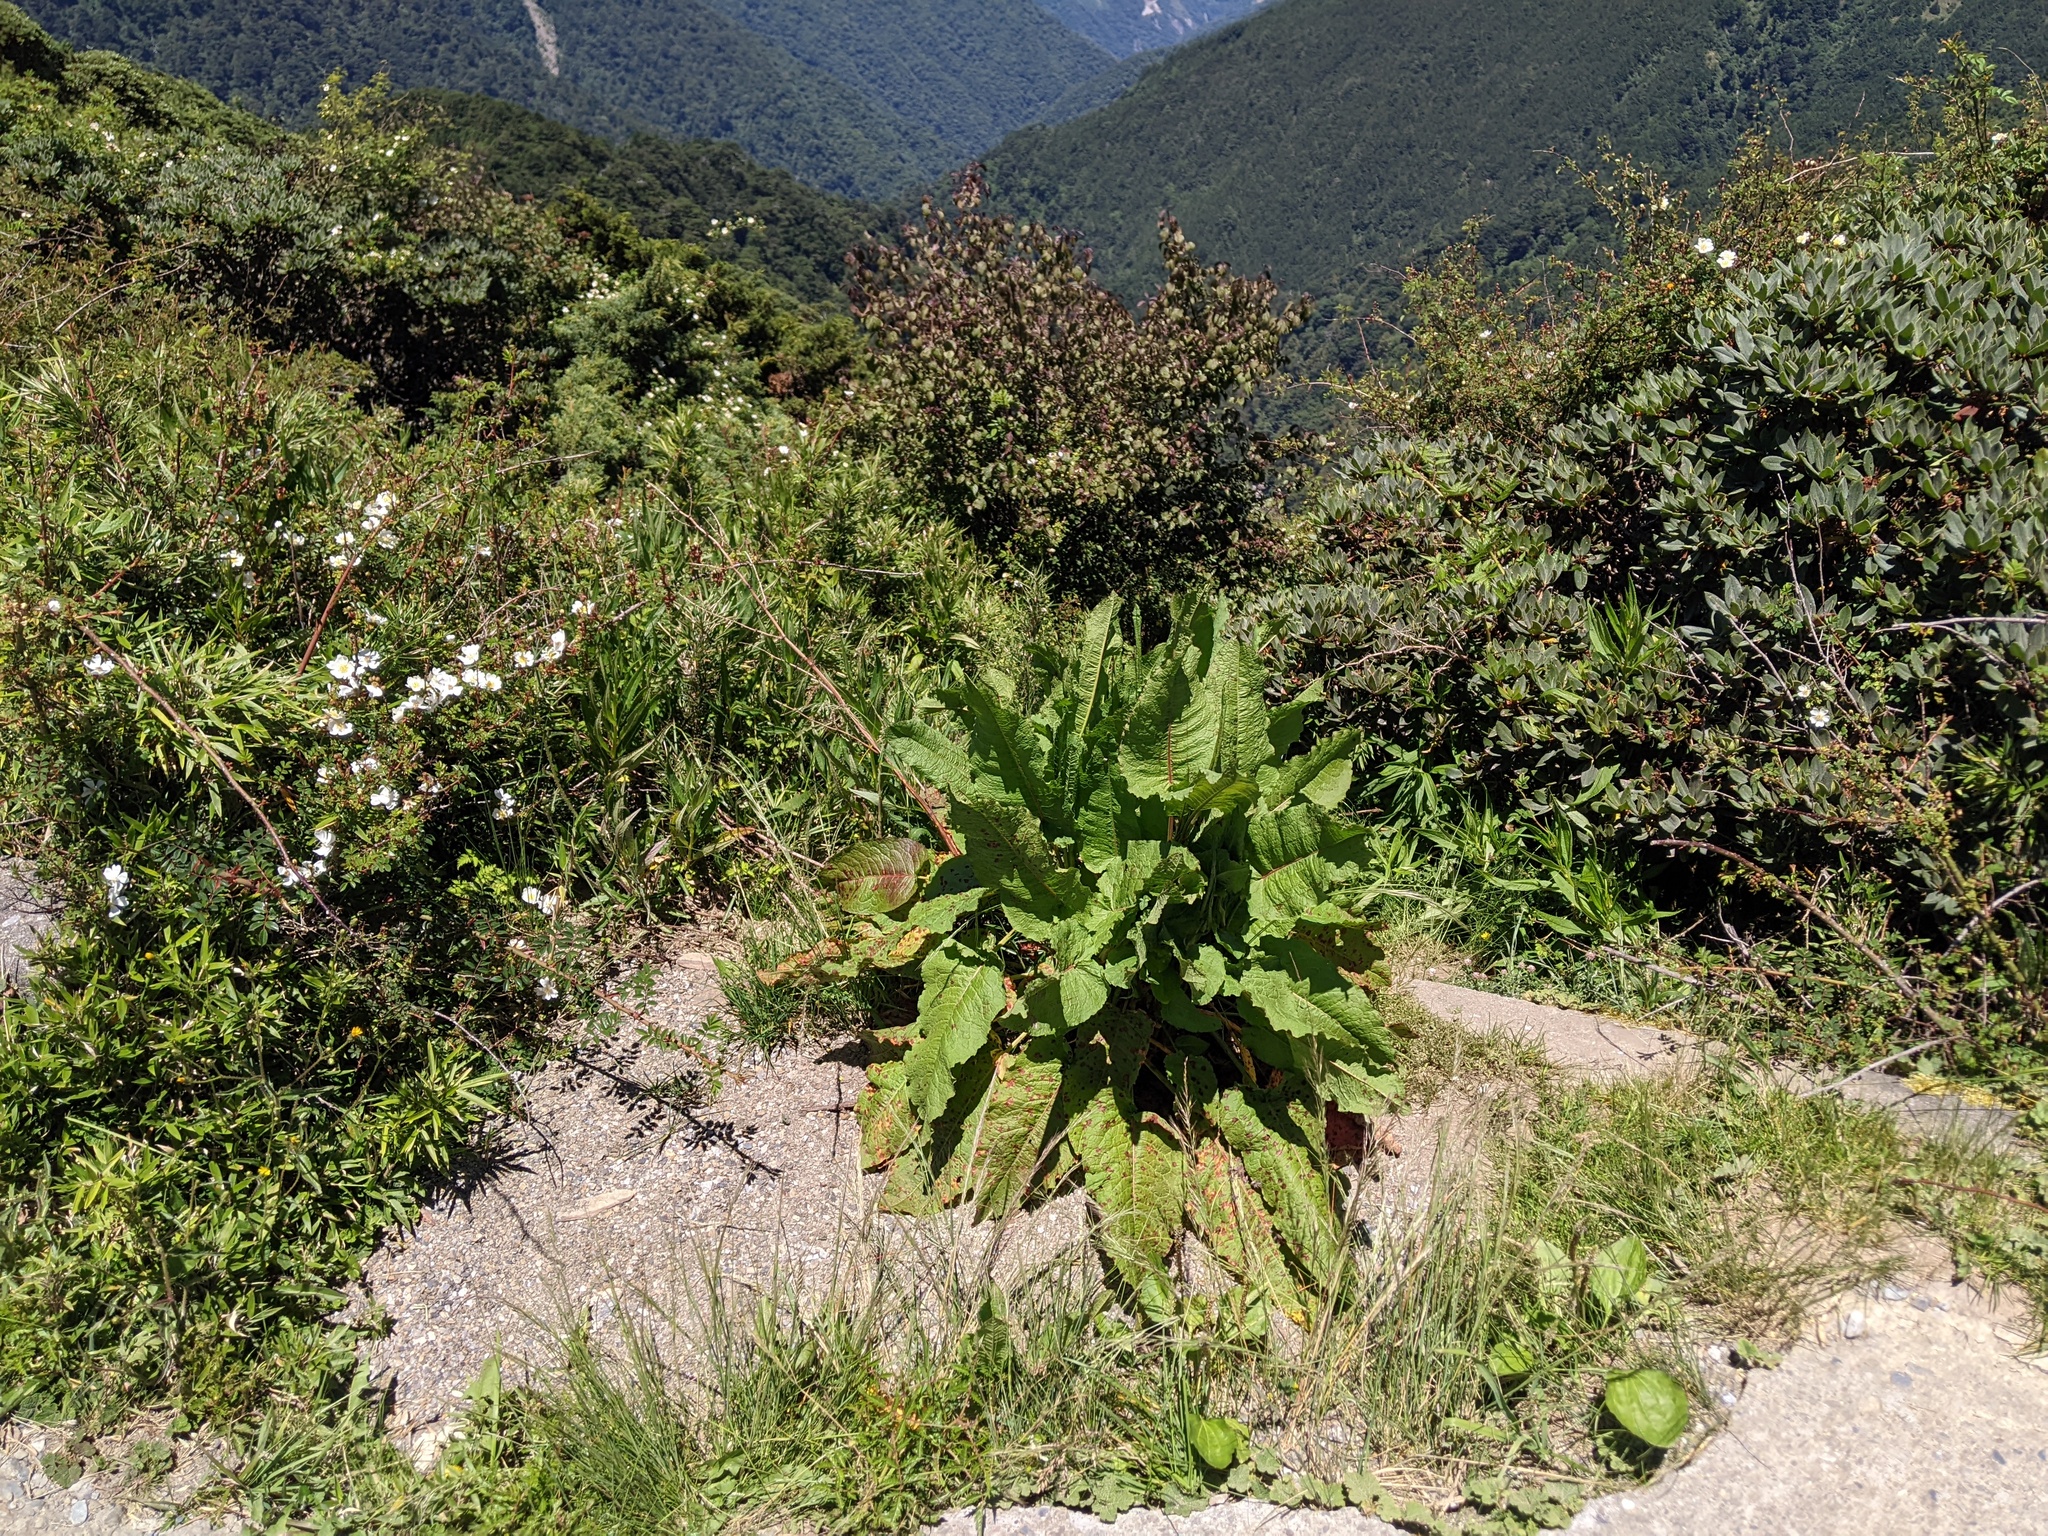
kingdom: Plantae
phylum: Tracheophyta
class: Magnoliopsida
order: Caryophyllales
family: Polygonaceae
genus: Rumex
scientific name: Rumex crispus
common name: Curled dock
